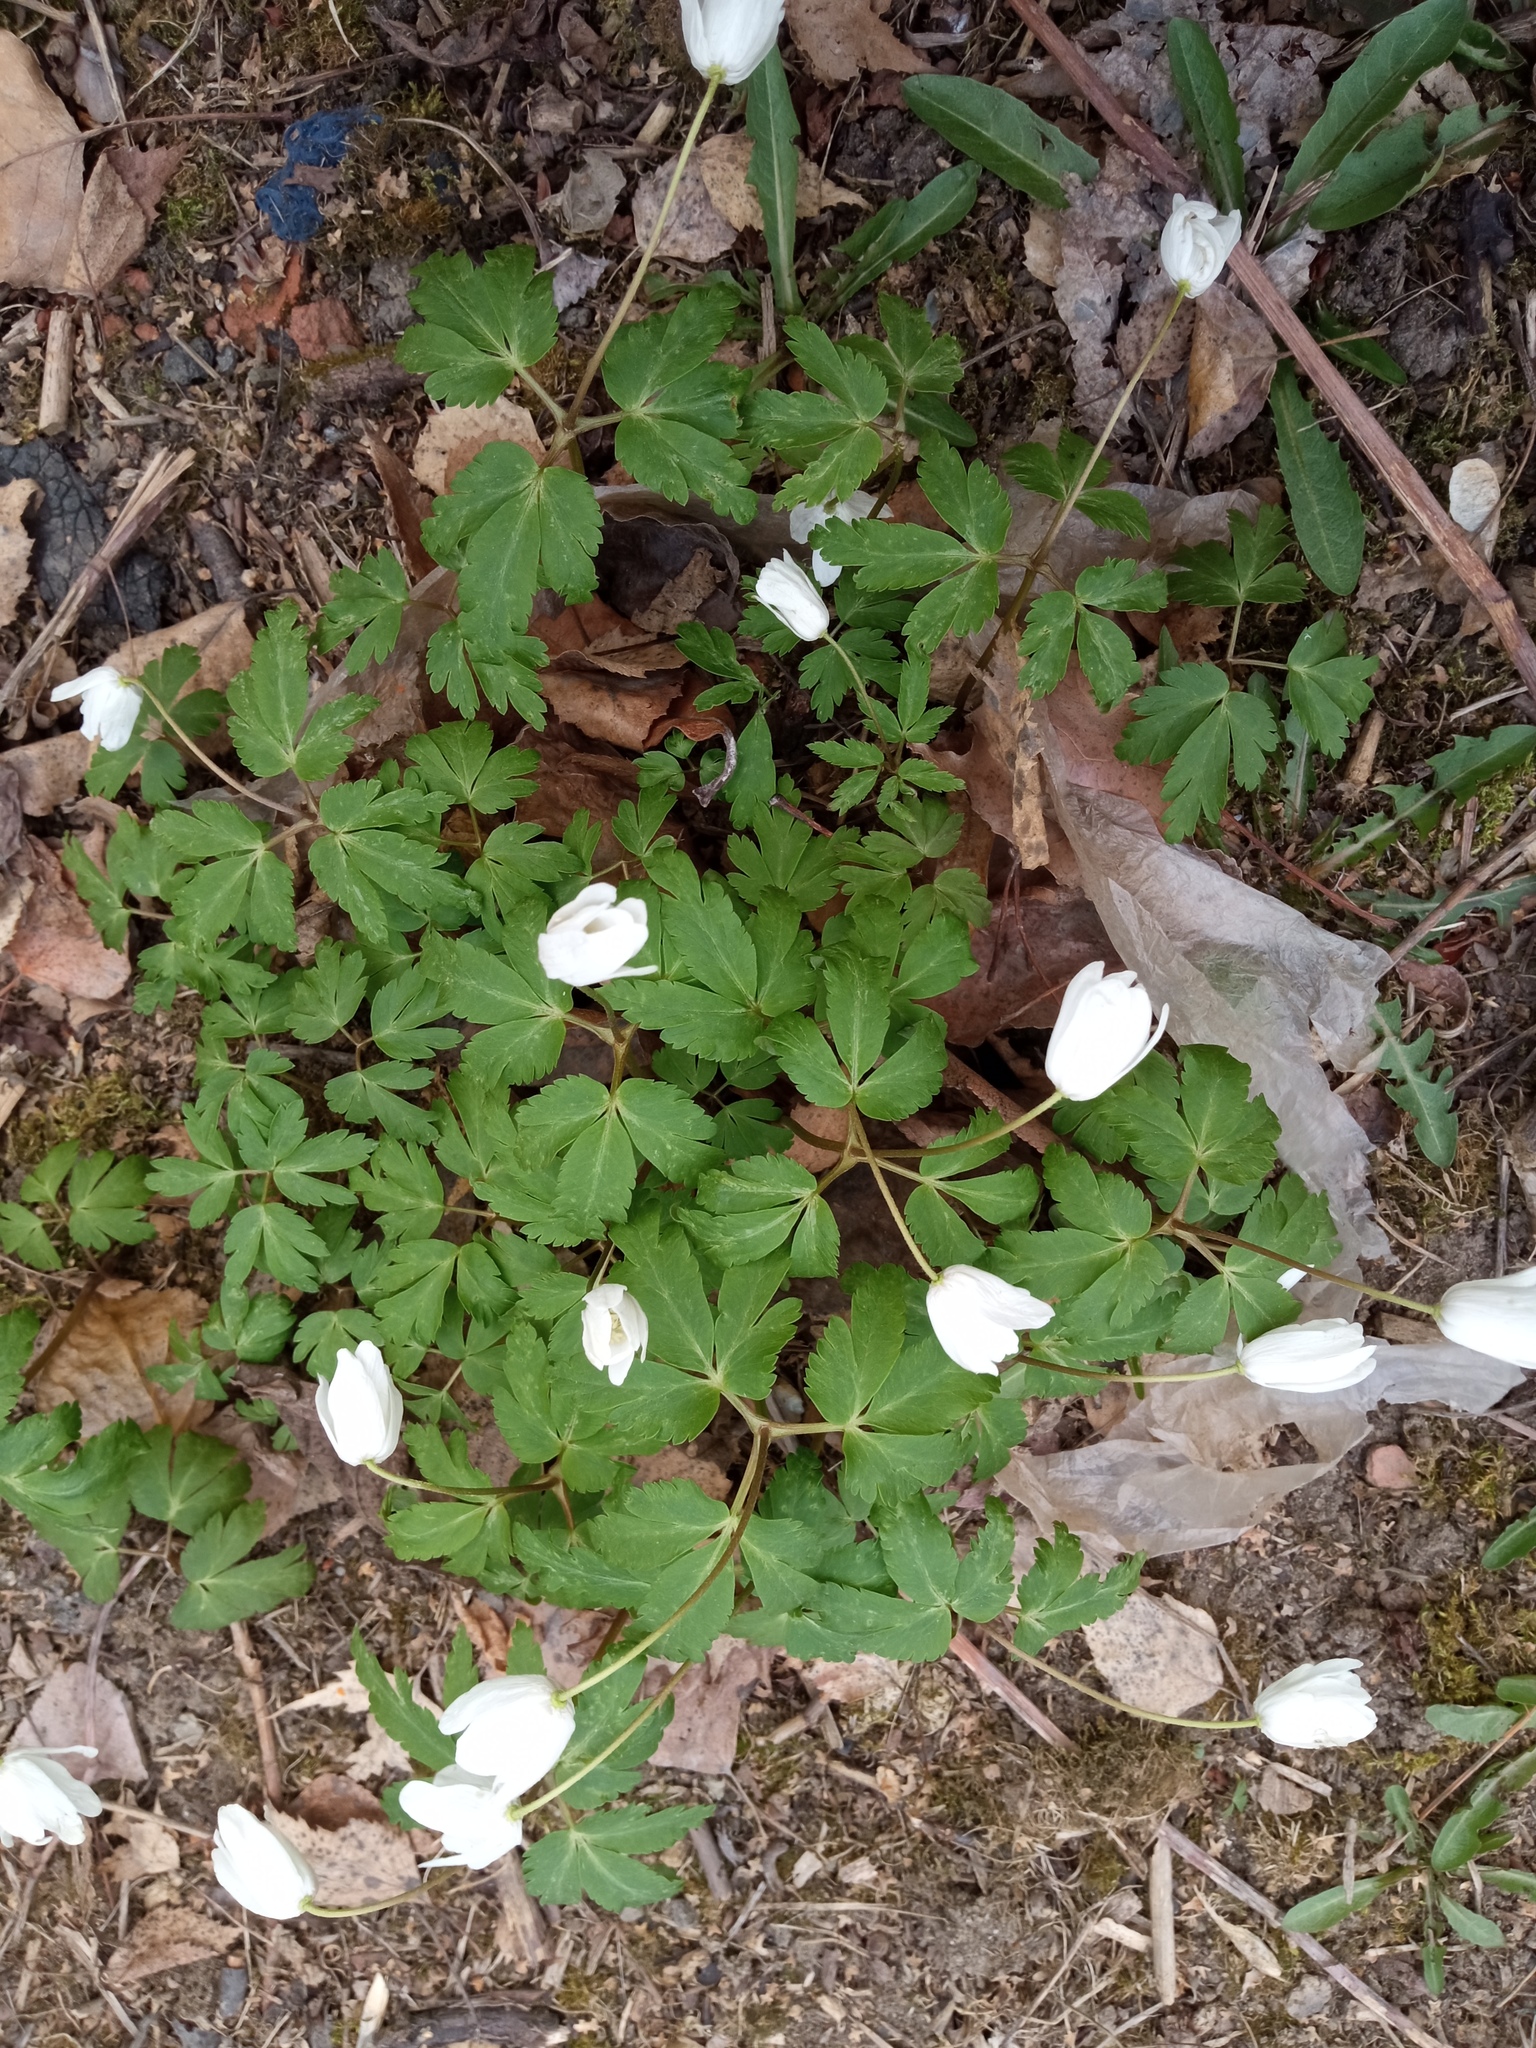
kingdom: Plantae
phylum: Tracheophyta
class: Magnoliopsida
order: Ranunculales
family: Ranunculaceae
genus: Anemone
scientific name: Anemone altaica
